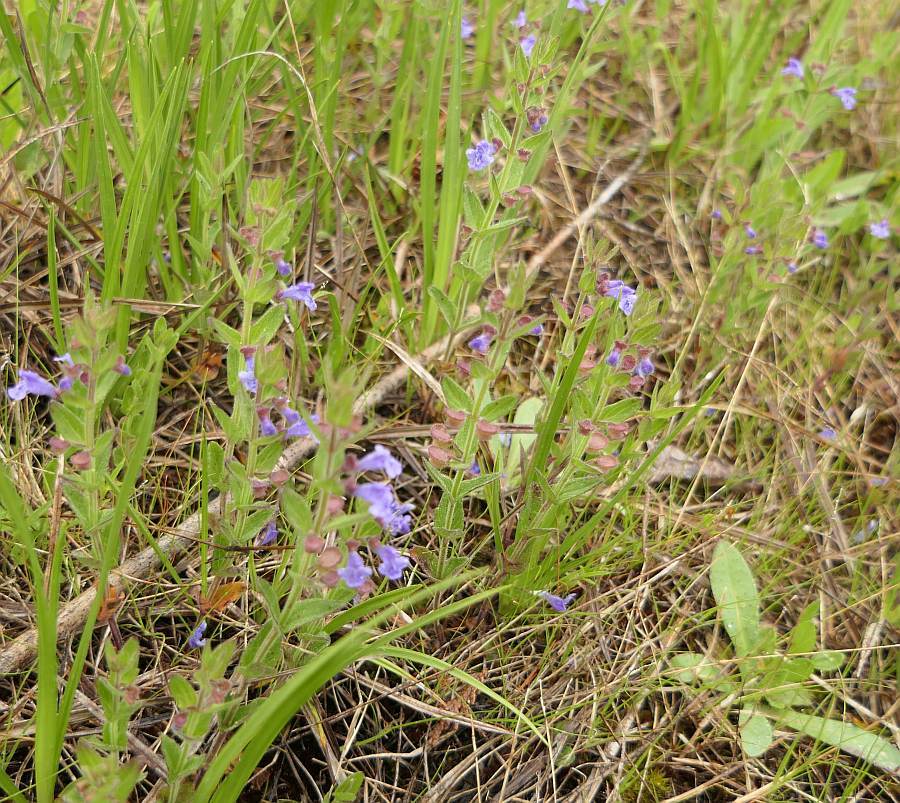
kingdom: Plantae
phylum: Tracheophyta
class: Magnoliopsida
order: Lamiales
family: Lamiaceae
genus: Scutellaria
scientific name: Scutellaria parvula
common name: Little scullcap
